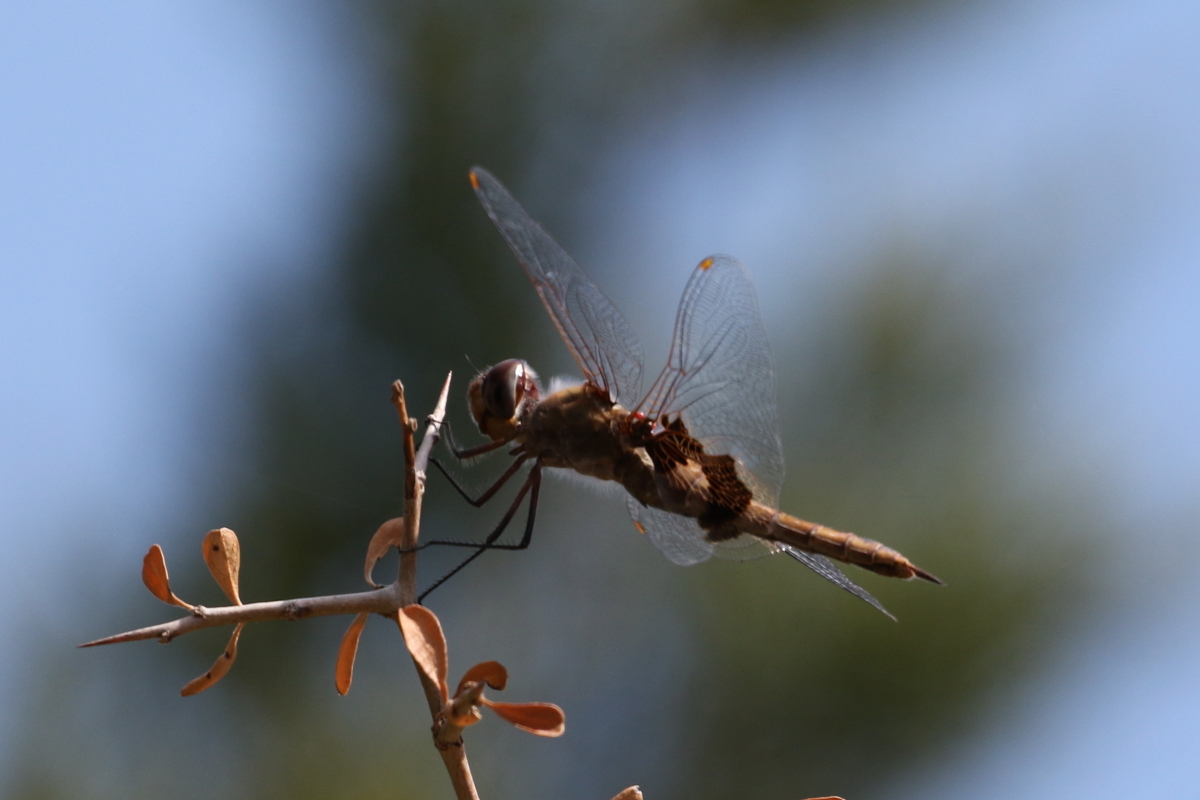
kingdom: Animalia
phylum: Arthropoda
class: Insecta
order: Odonata
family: Libellulidae
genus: Tramea
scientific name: Tramea onusta
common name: Red saddlebags
